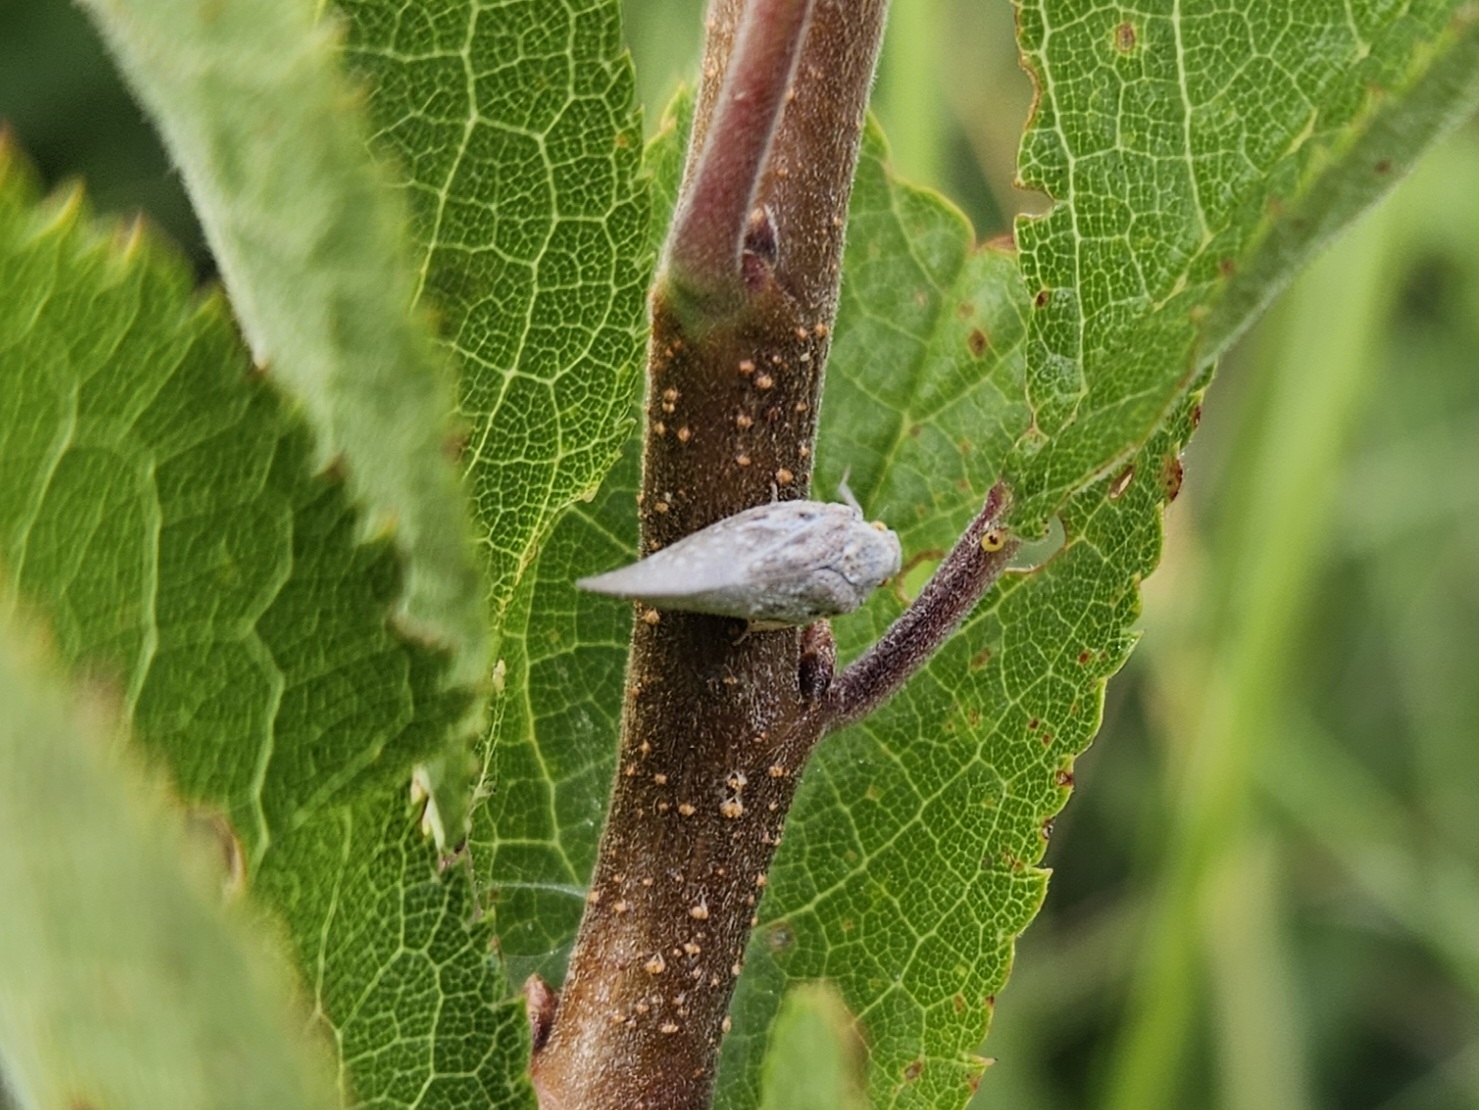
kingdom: Animalia
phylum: Arthropoda
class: Insecta
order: Hemiptera
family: Flatidae
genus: Metcalfa
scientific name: Metcalfa pruinosa
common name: Citrus flatid planthopper
